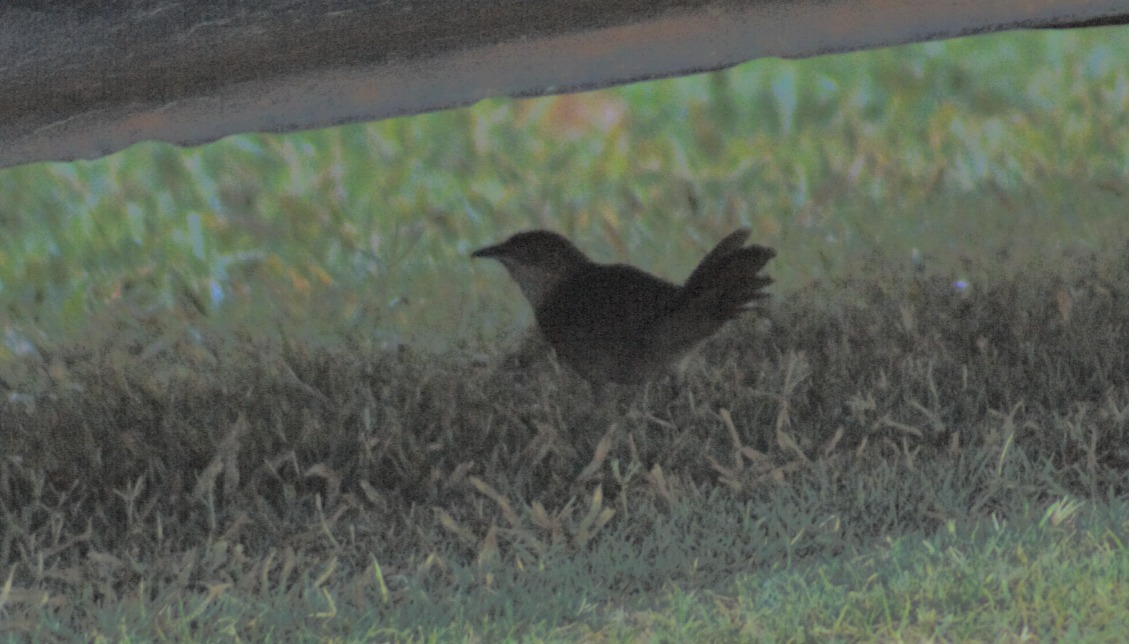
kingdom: Animalia
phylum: Chordata
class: Aves
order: Passeriformes
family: Furnariidae
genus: Phacellodomus
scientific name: Phacellodomus ruber
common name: Greater thornbird
